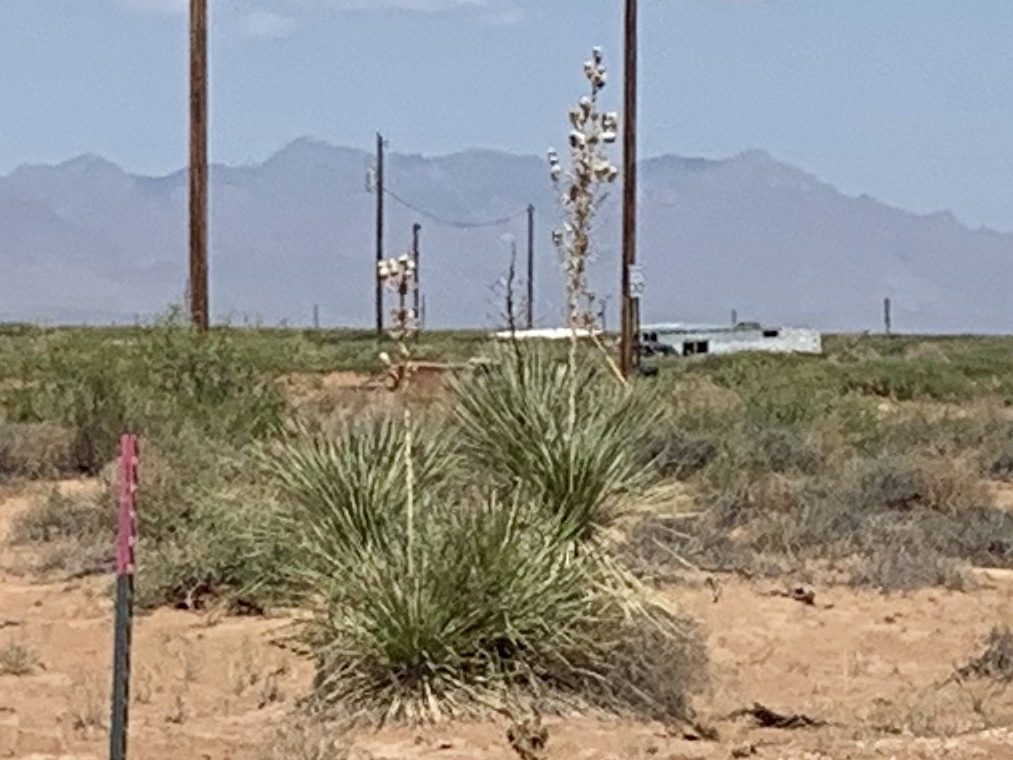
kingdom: Plantae
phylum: Tracheophyta
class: Liliopsida
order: Asparagales
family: Asparagaceae
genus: Yucca
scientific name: Yucca elata
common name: Palmella
